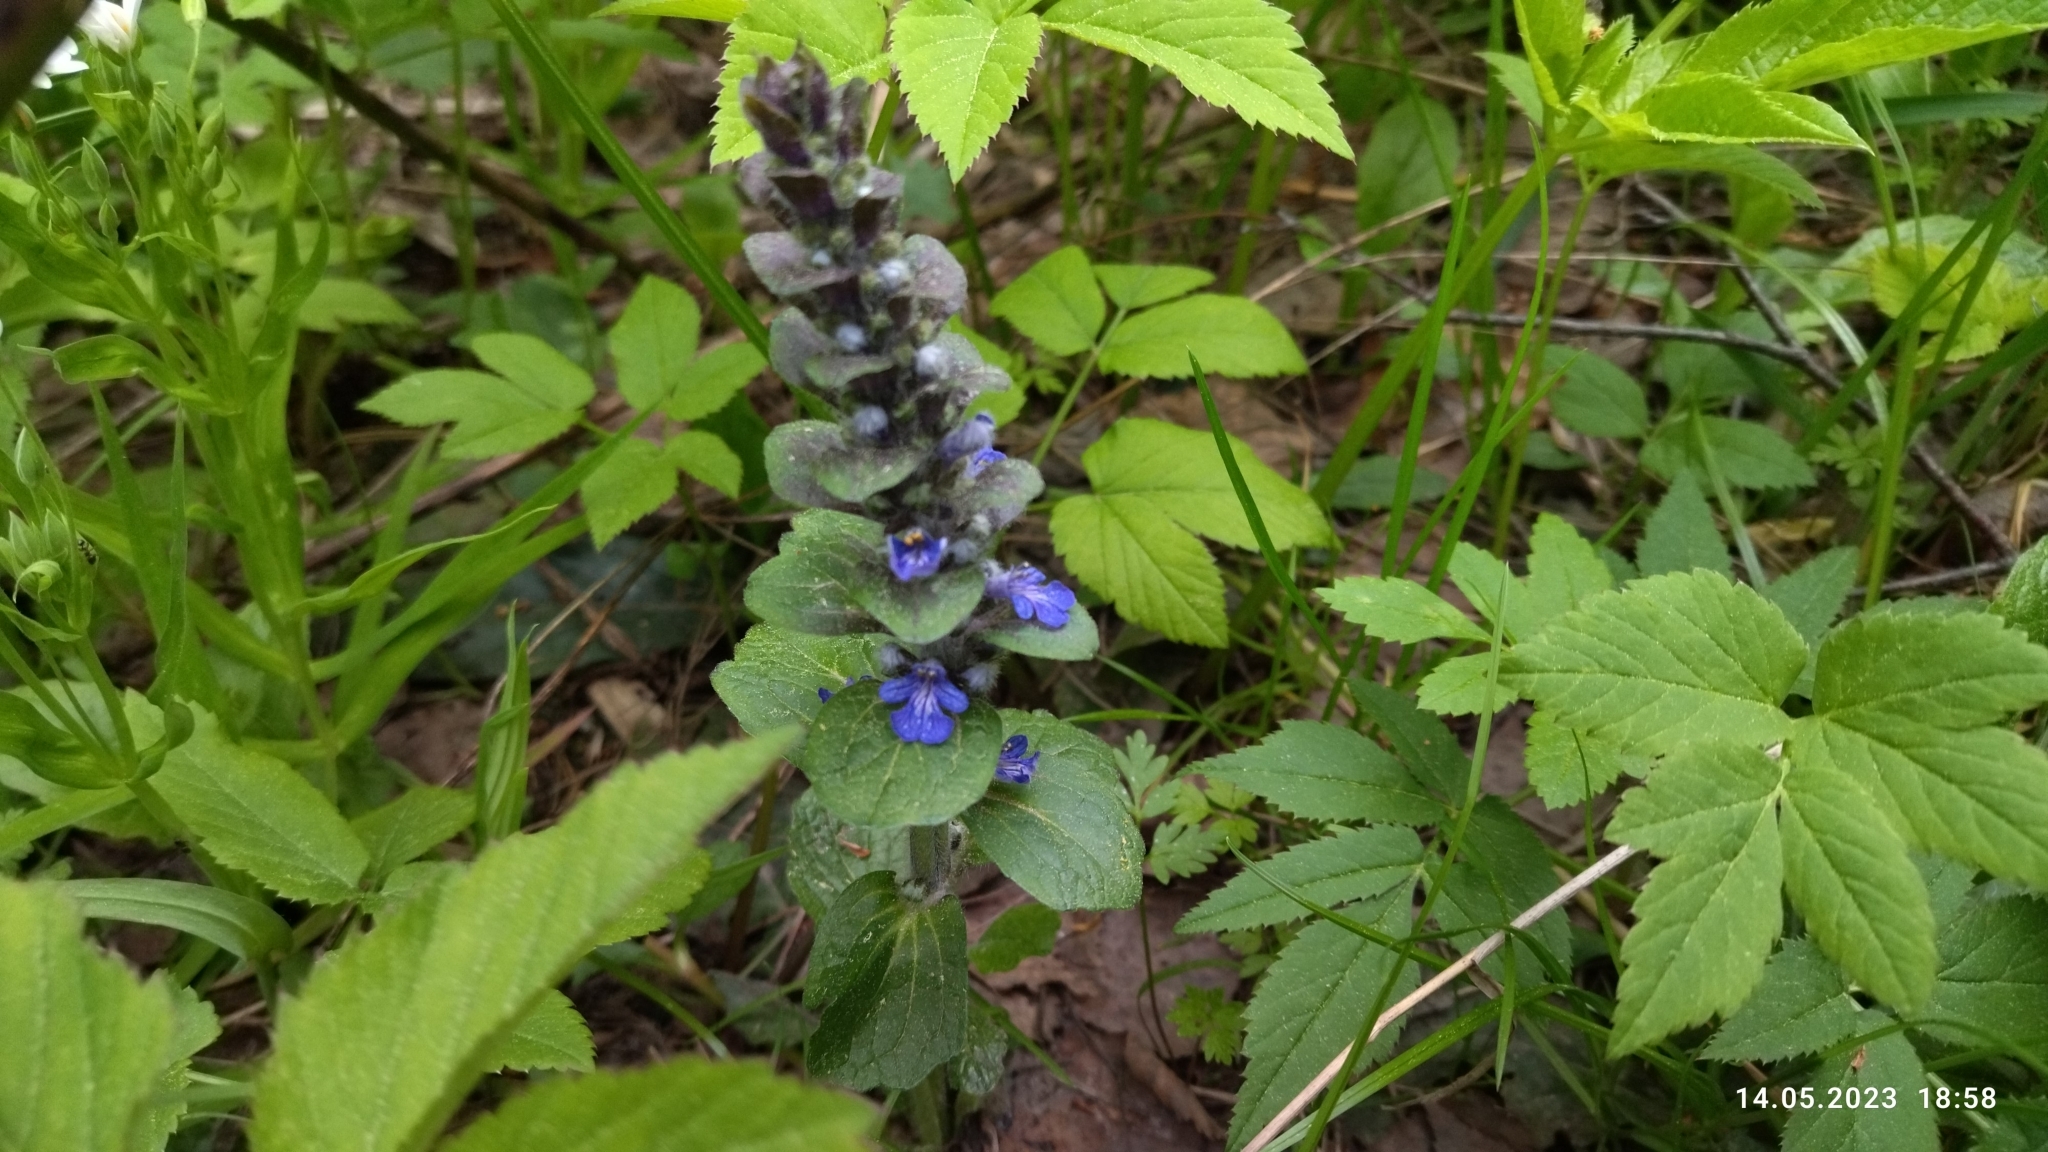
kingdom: Plantae
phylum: Tracheophyta
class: Magnoliopsida
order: Lamiales
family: Lamiaceae
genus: Ajuga
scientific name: Ajuga reptans
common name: Bugle
